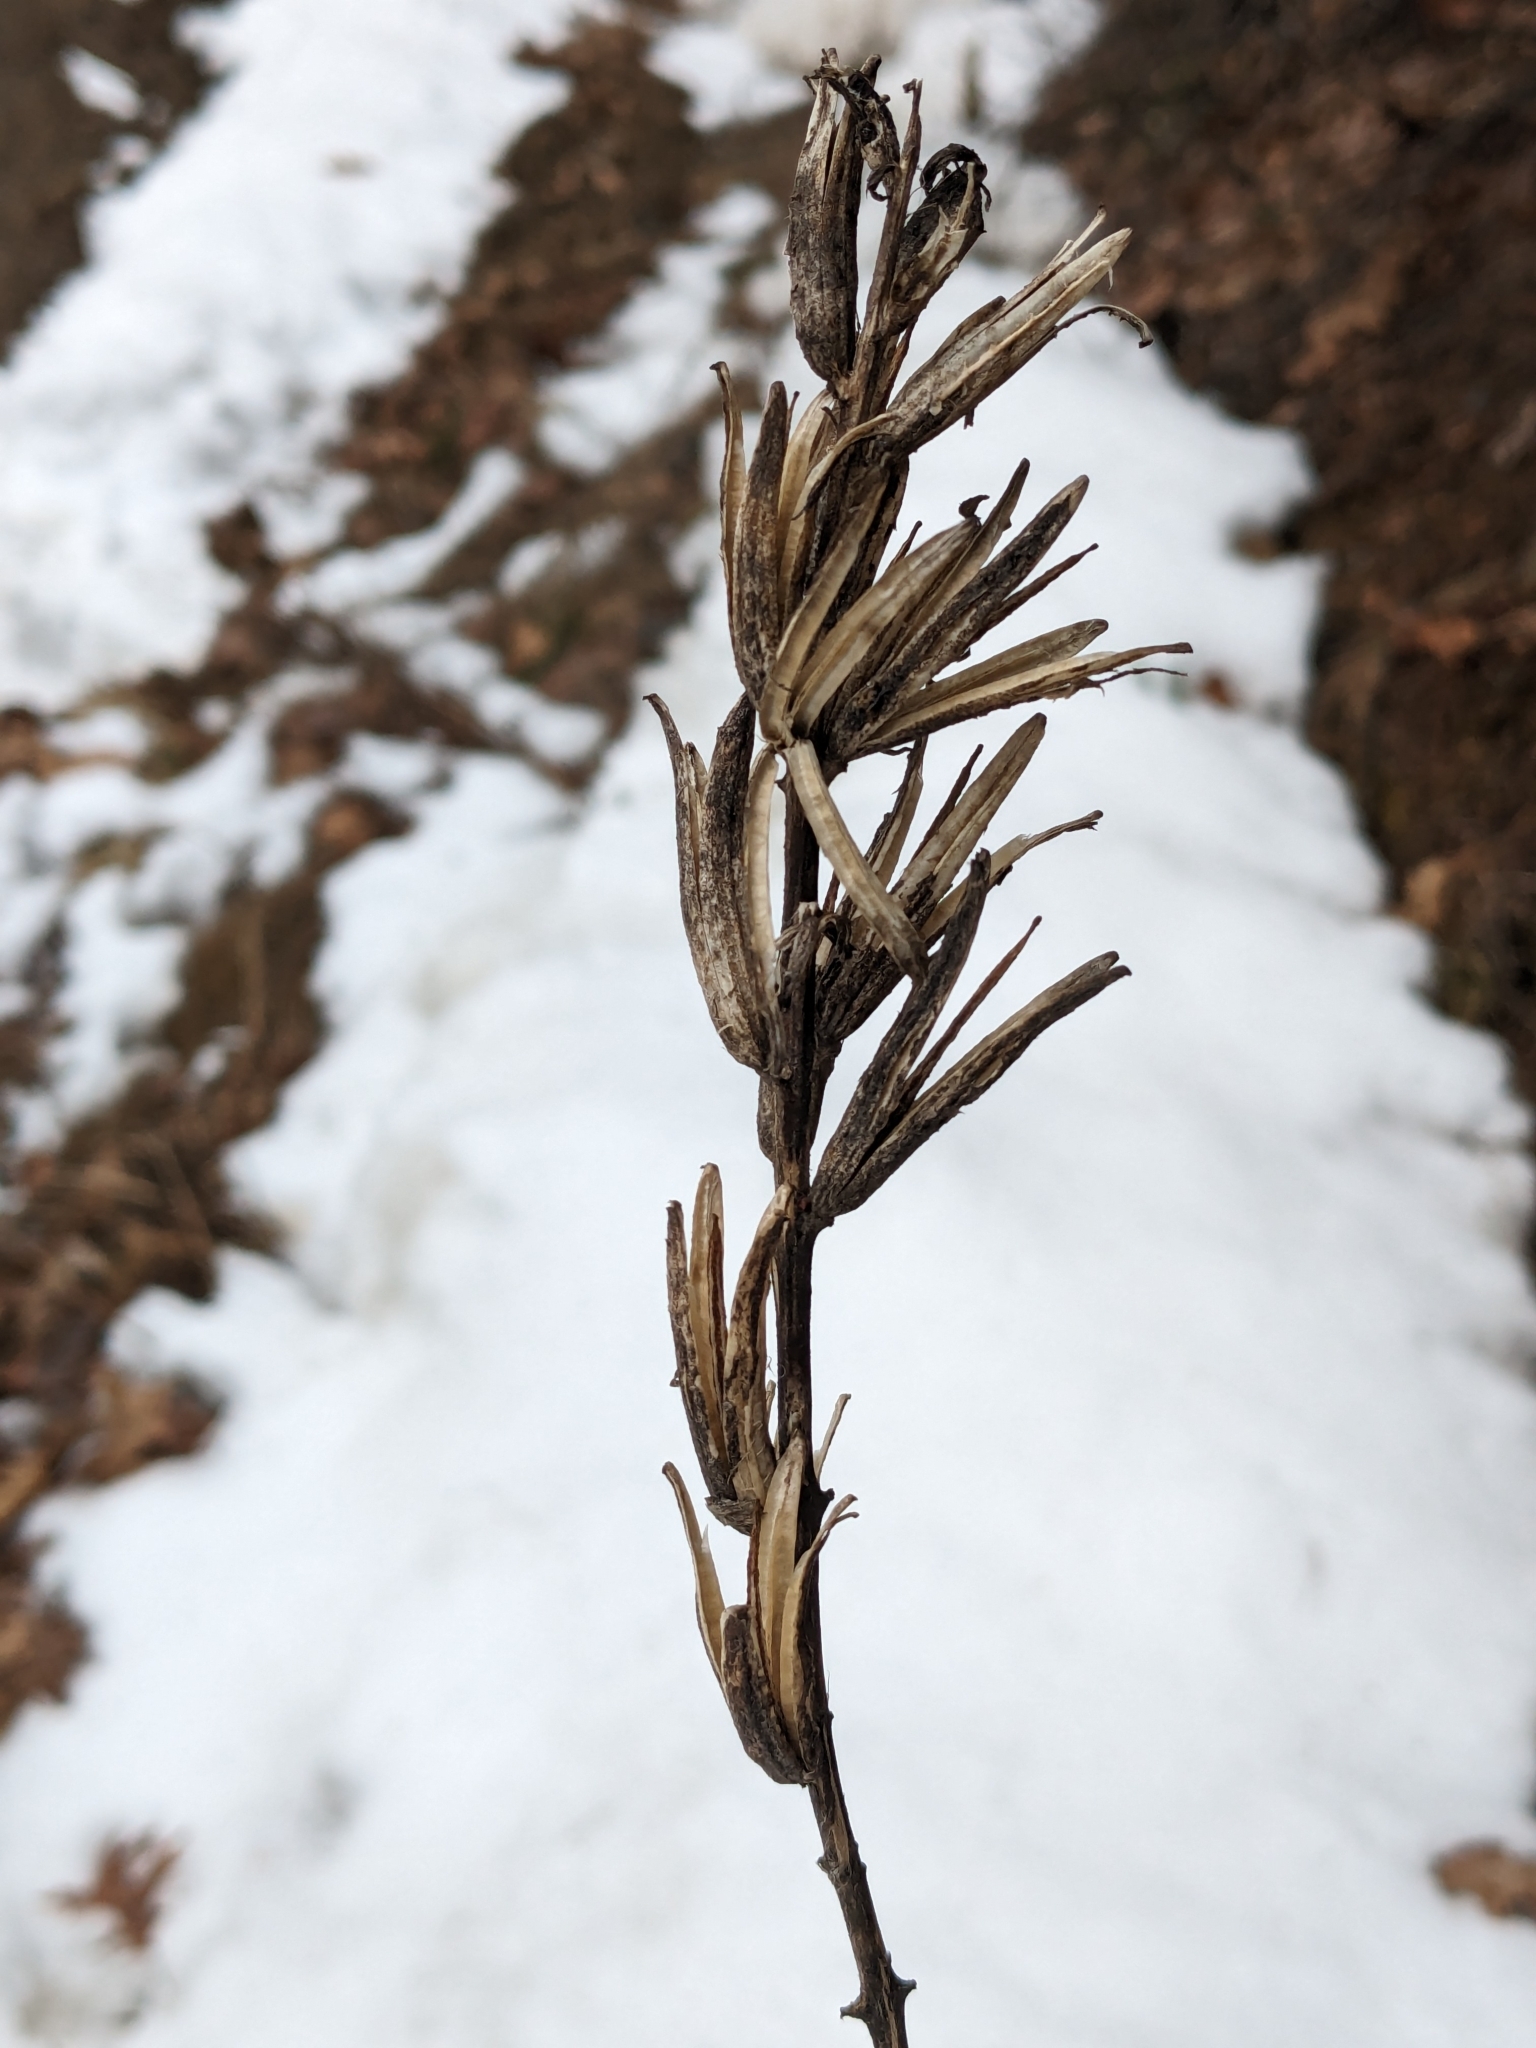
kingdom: Plantae
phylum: Tracheophyta
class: Magnoliopsida
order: Myrtales
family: Onagraceae
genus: Oenothera
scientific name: Oenothera biennis
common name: Common evening-primrose
